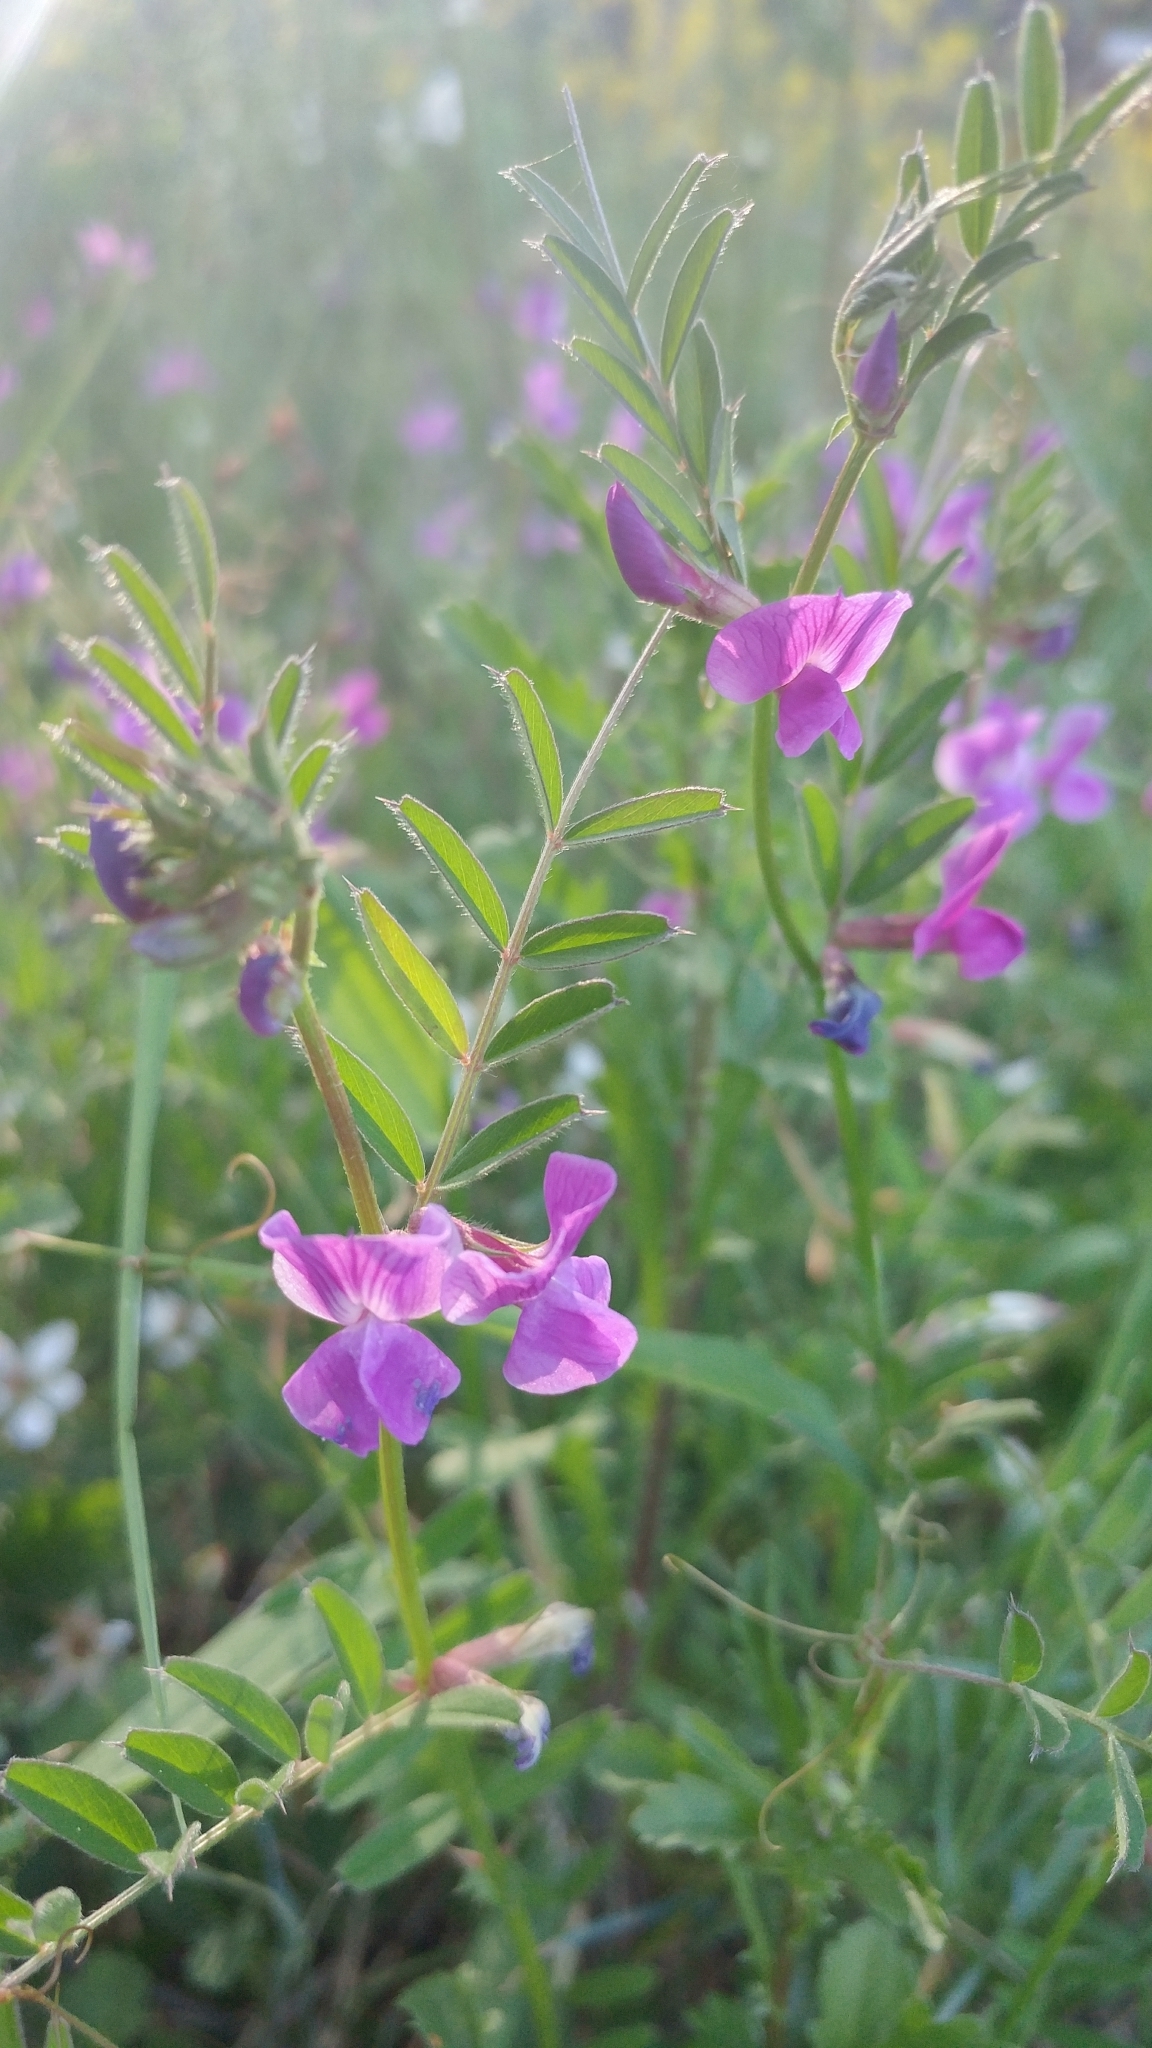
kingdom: Plantae
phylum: Tracheophyta
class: Magnoliopsida
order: Fabales
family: Fabaceae
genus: Vicia
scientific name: Vicia sativa
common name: Garden vetch
